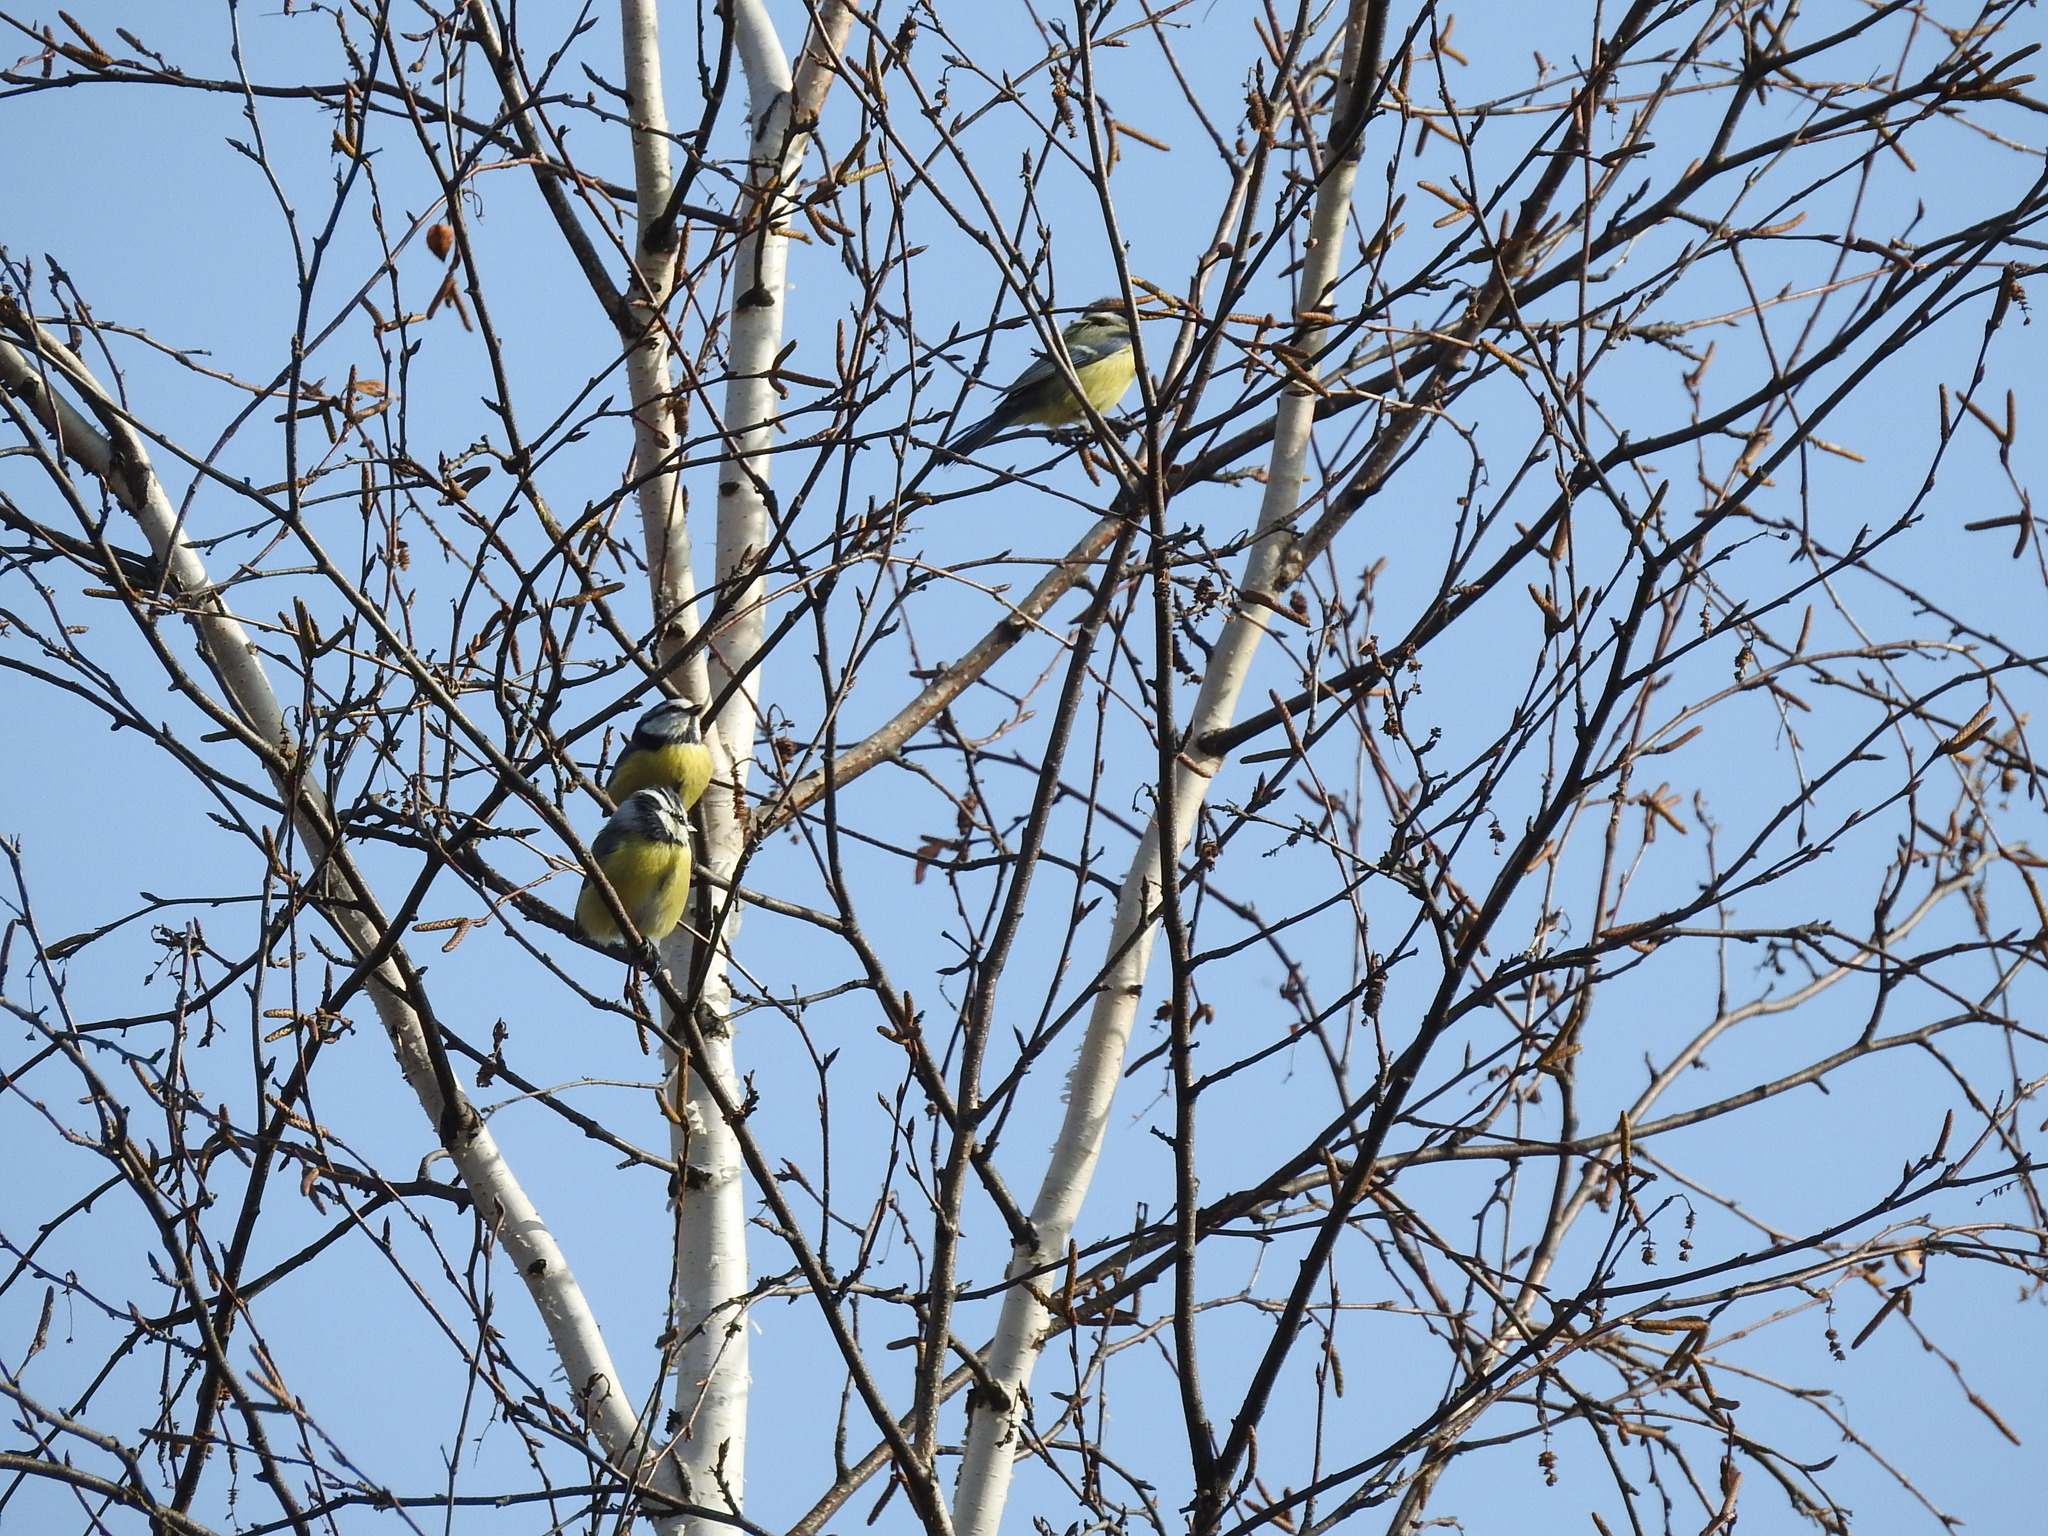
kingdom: Animalia
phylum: Chordata
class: Aves
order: Passeriformes
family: Paridae
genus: Cyanistes
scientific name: Cyanistes caeruleus
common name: Eurasian blue tit
